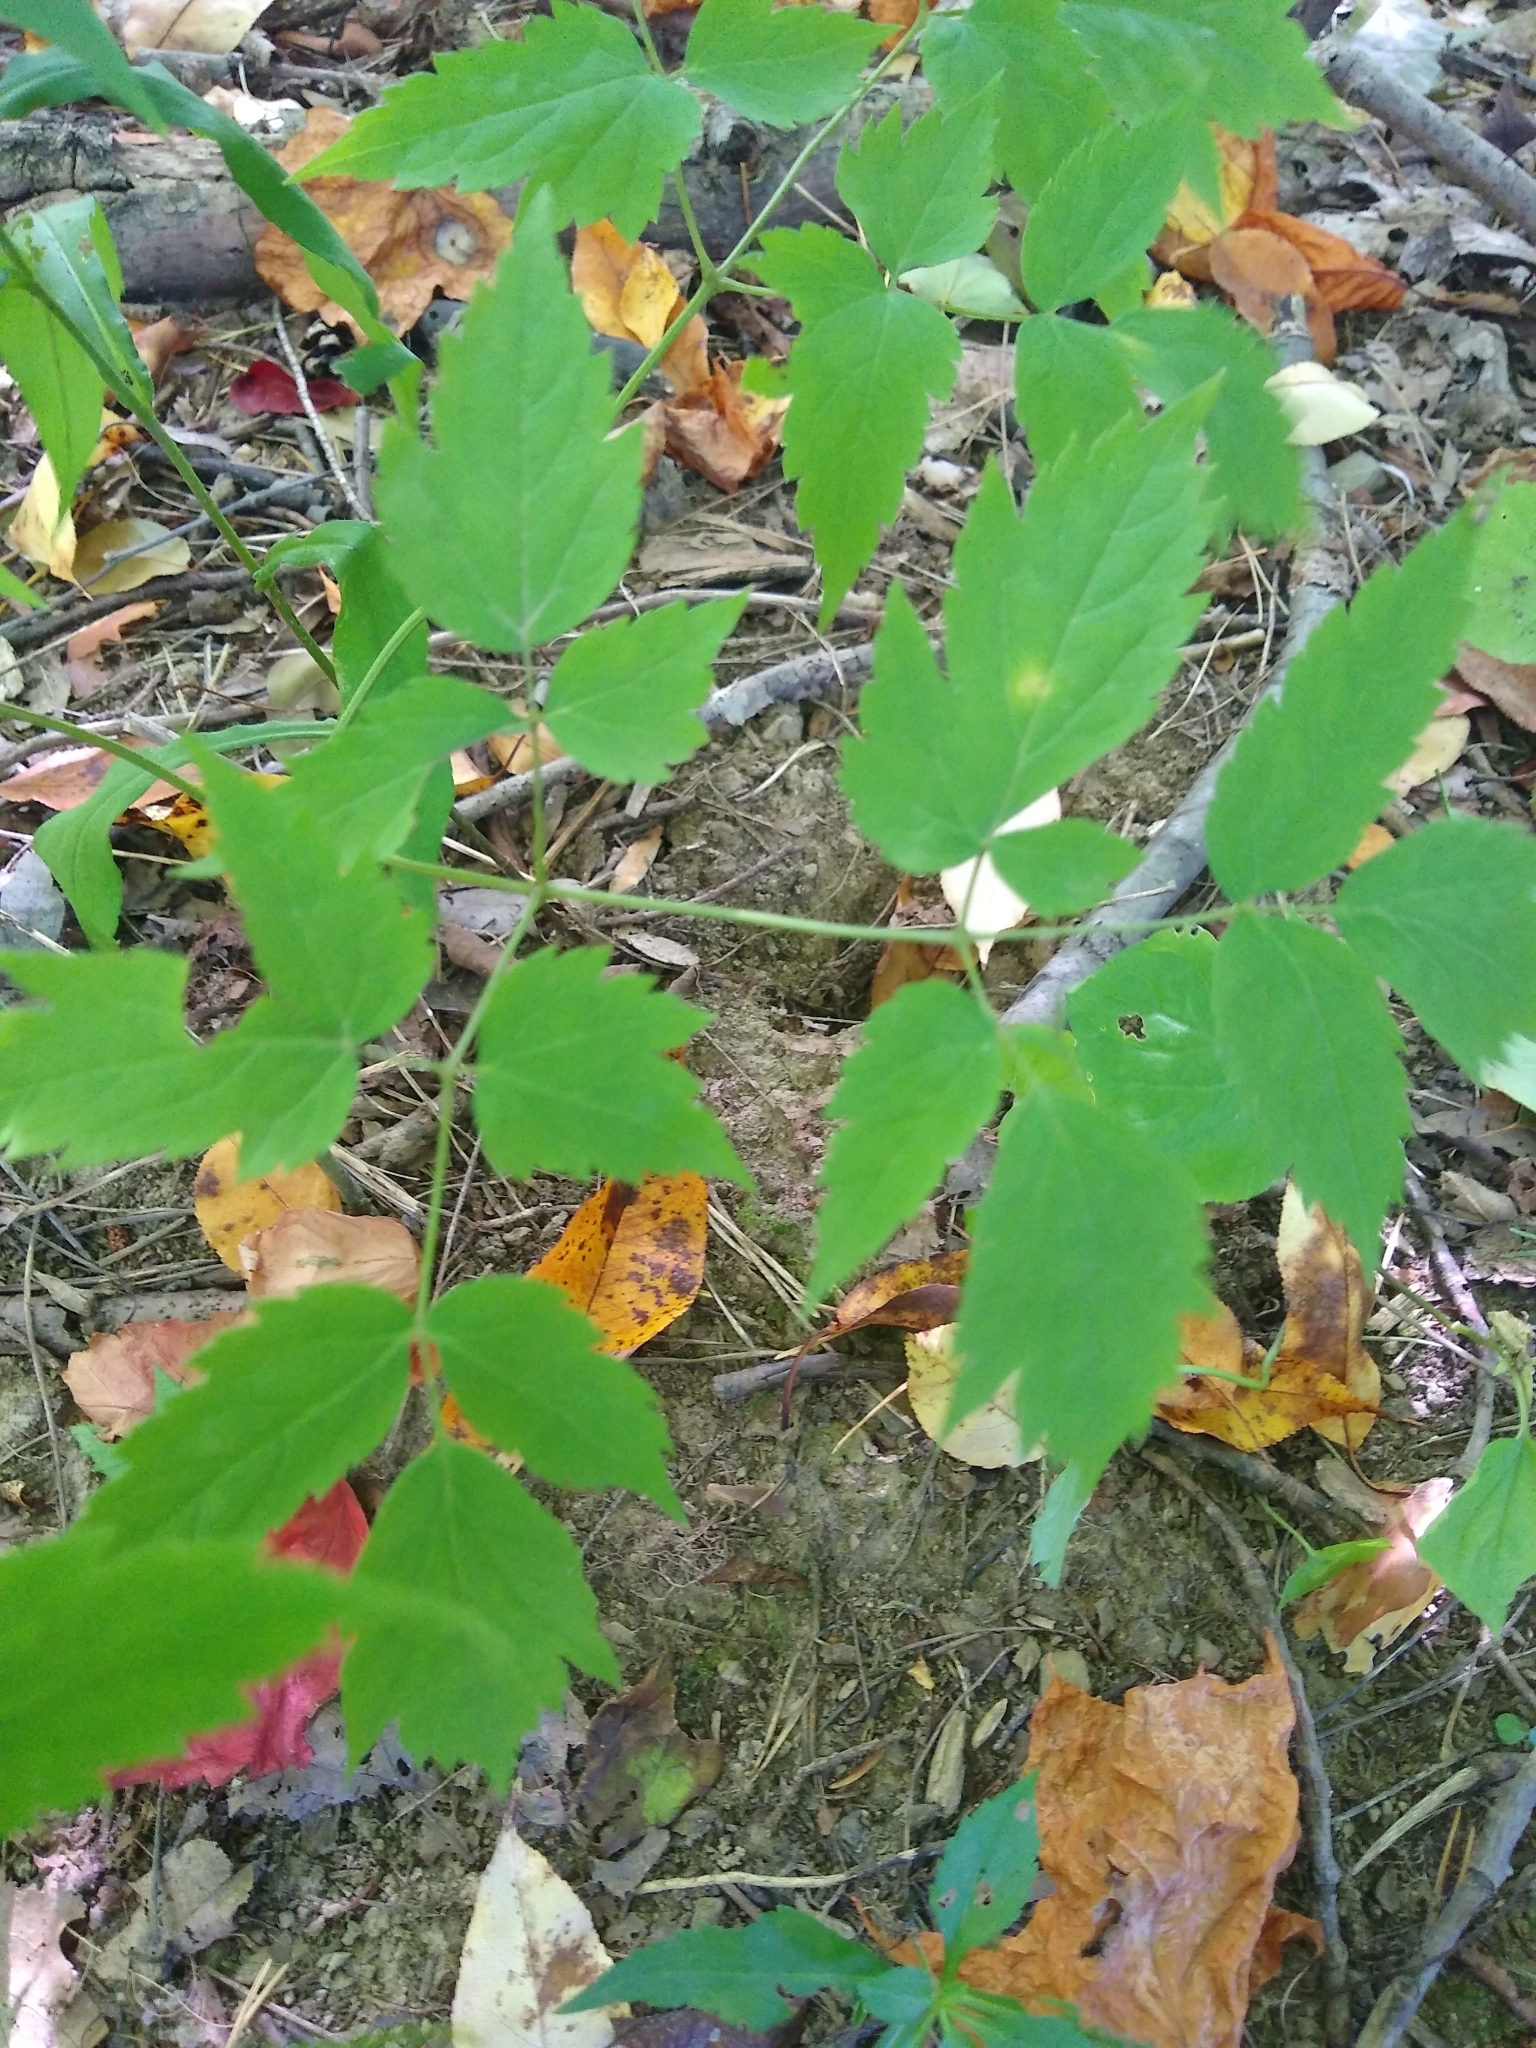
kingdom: Plantae
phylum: Tracheophyta
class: Magnoliopsida
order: Ranunculales
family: Ranunculaceae
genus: Actaea
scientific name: Actaea pachypoda
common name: Doll's-eyes
